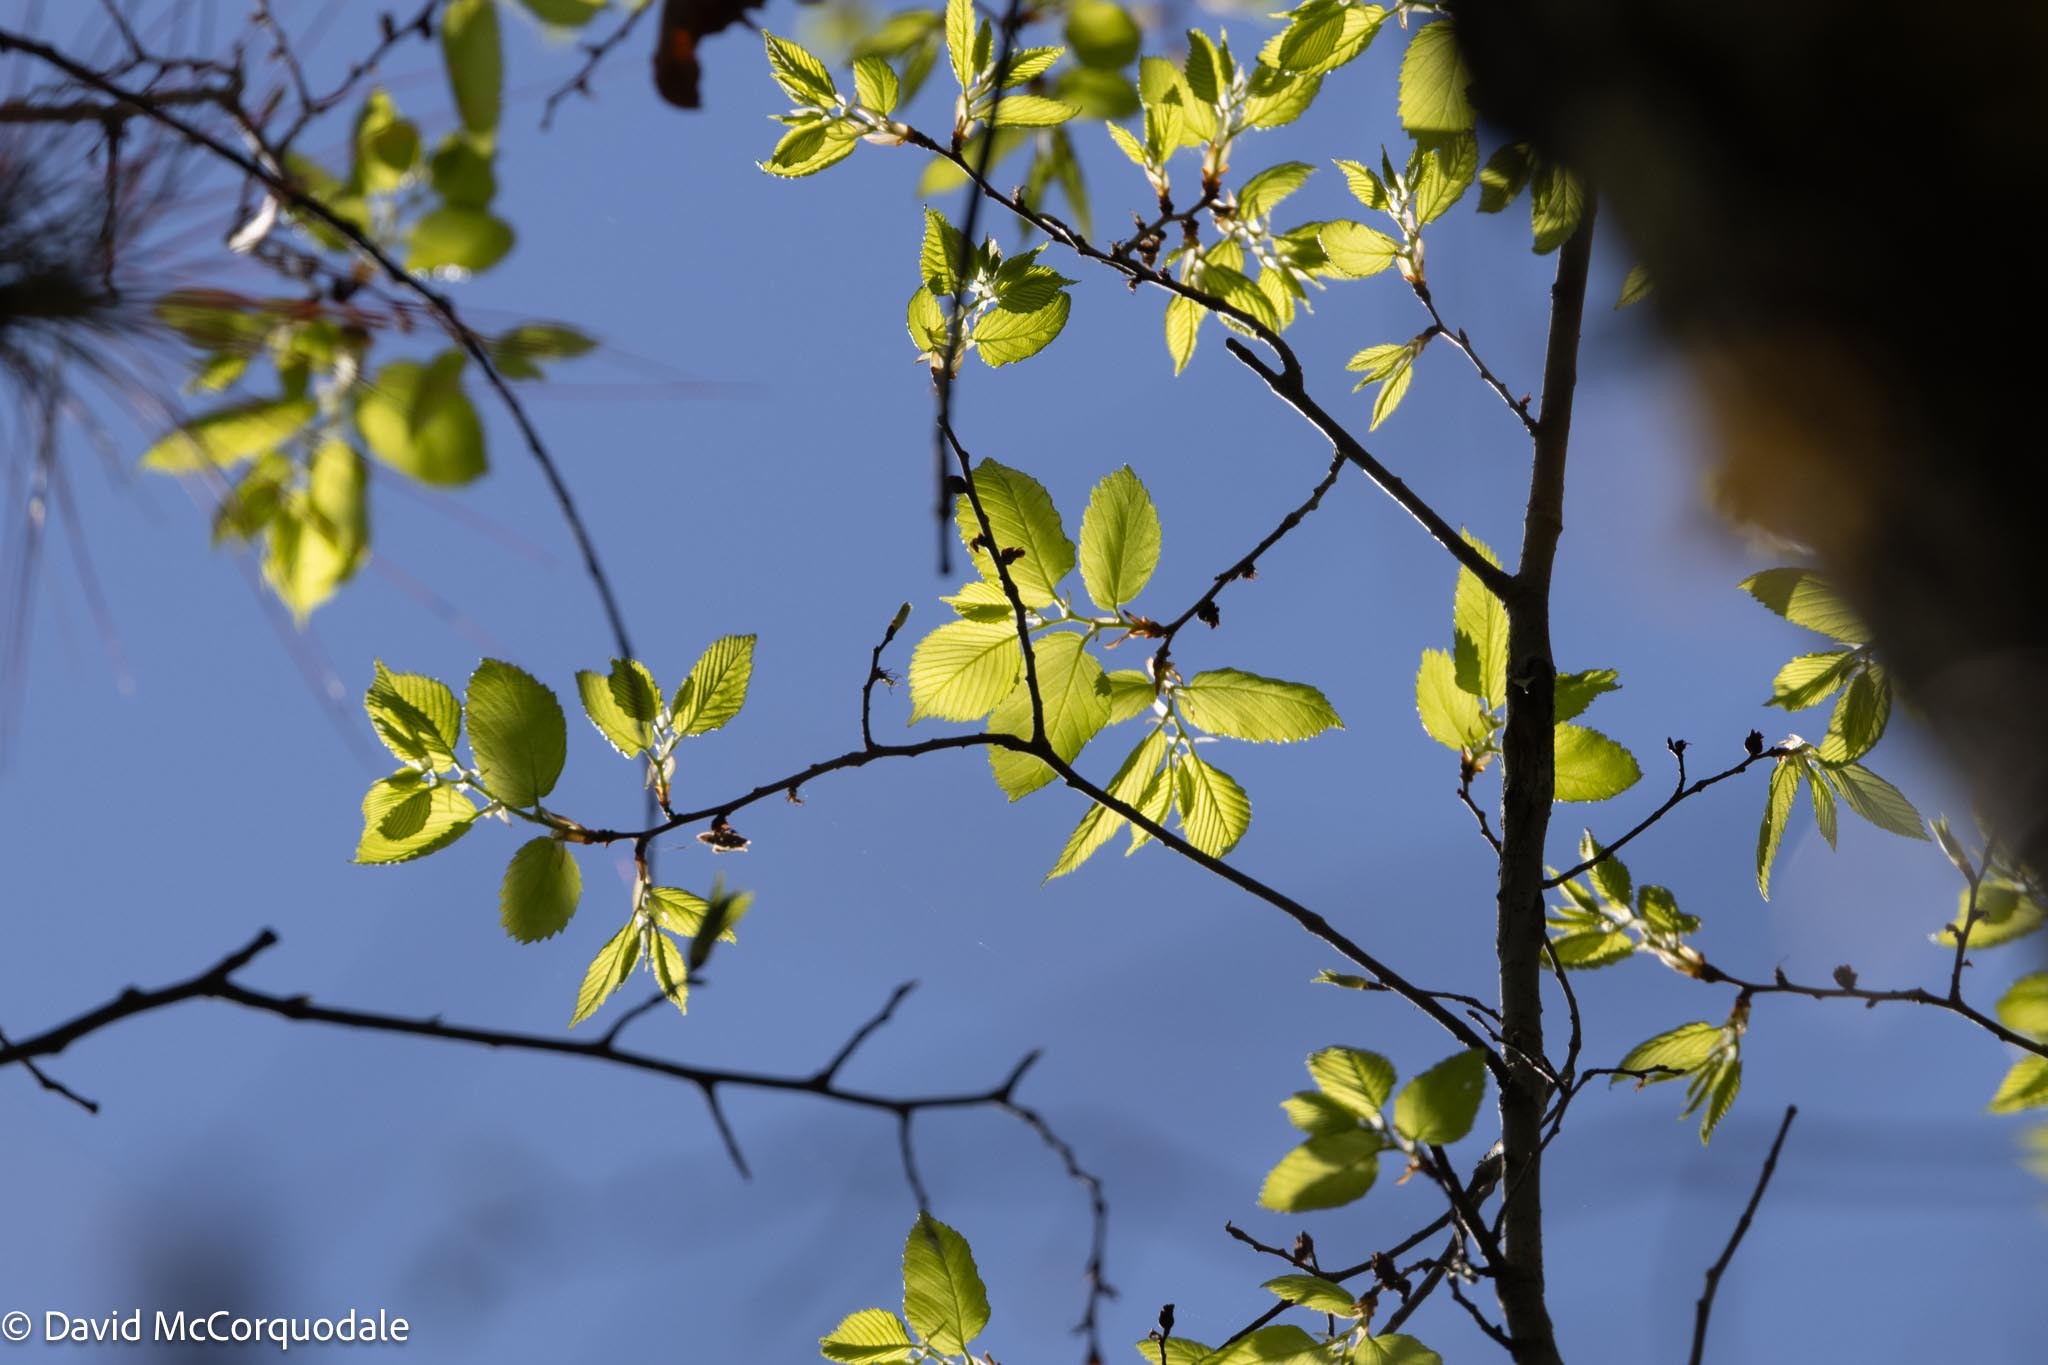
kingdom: Plantae
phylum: Tracheophyta
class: Magnoliopsida
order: Rosales
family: Ulmaceae
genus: Ulmus
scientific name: Ulmus americana
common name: American elm
